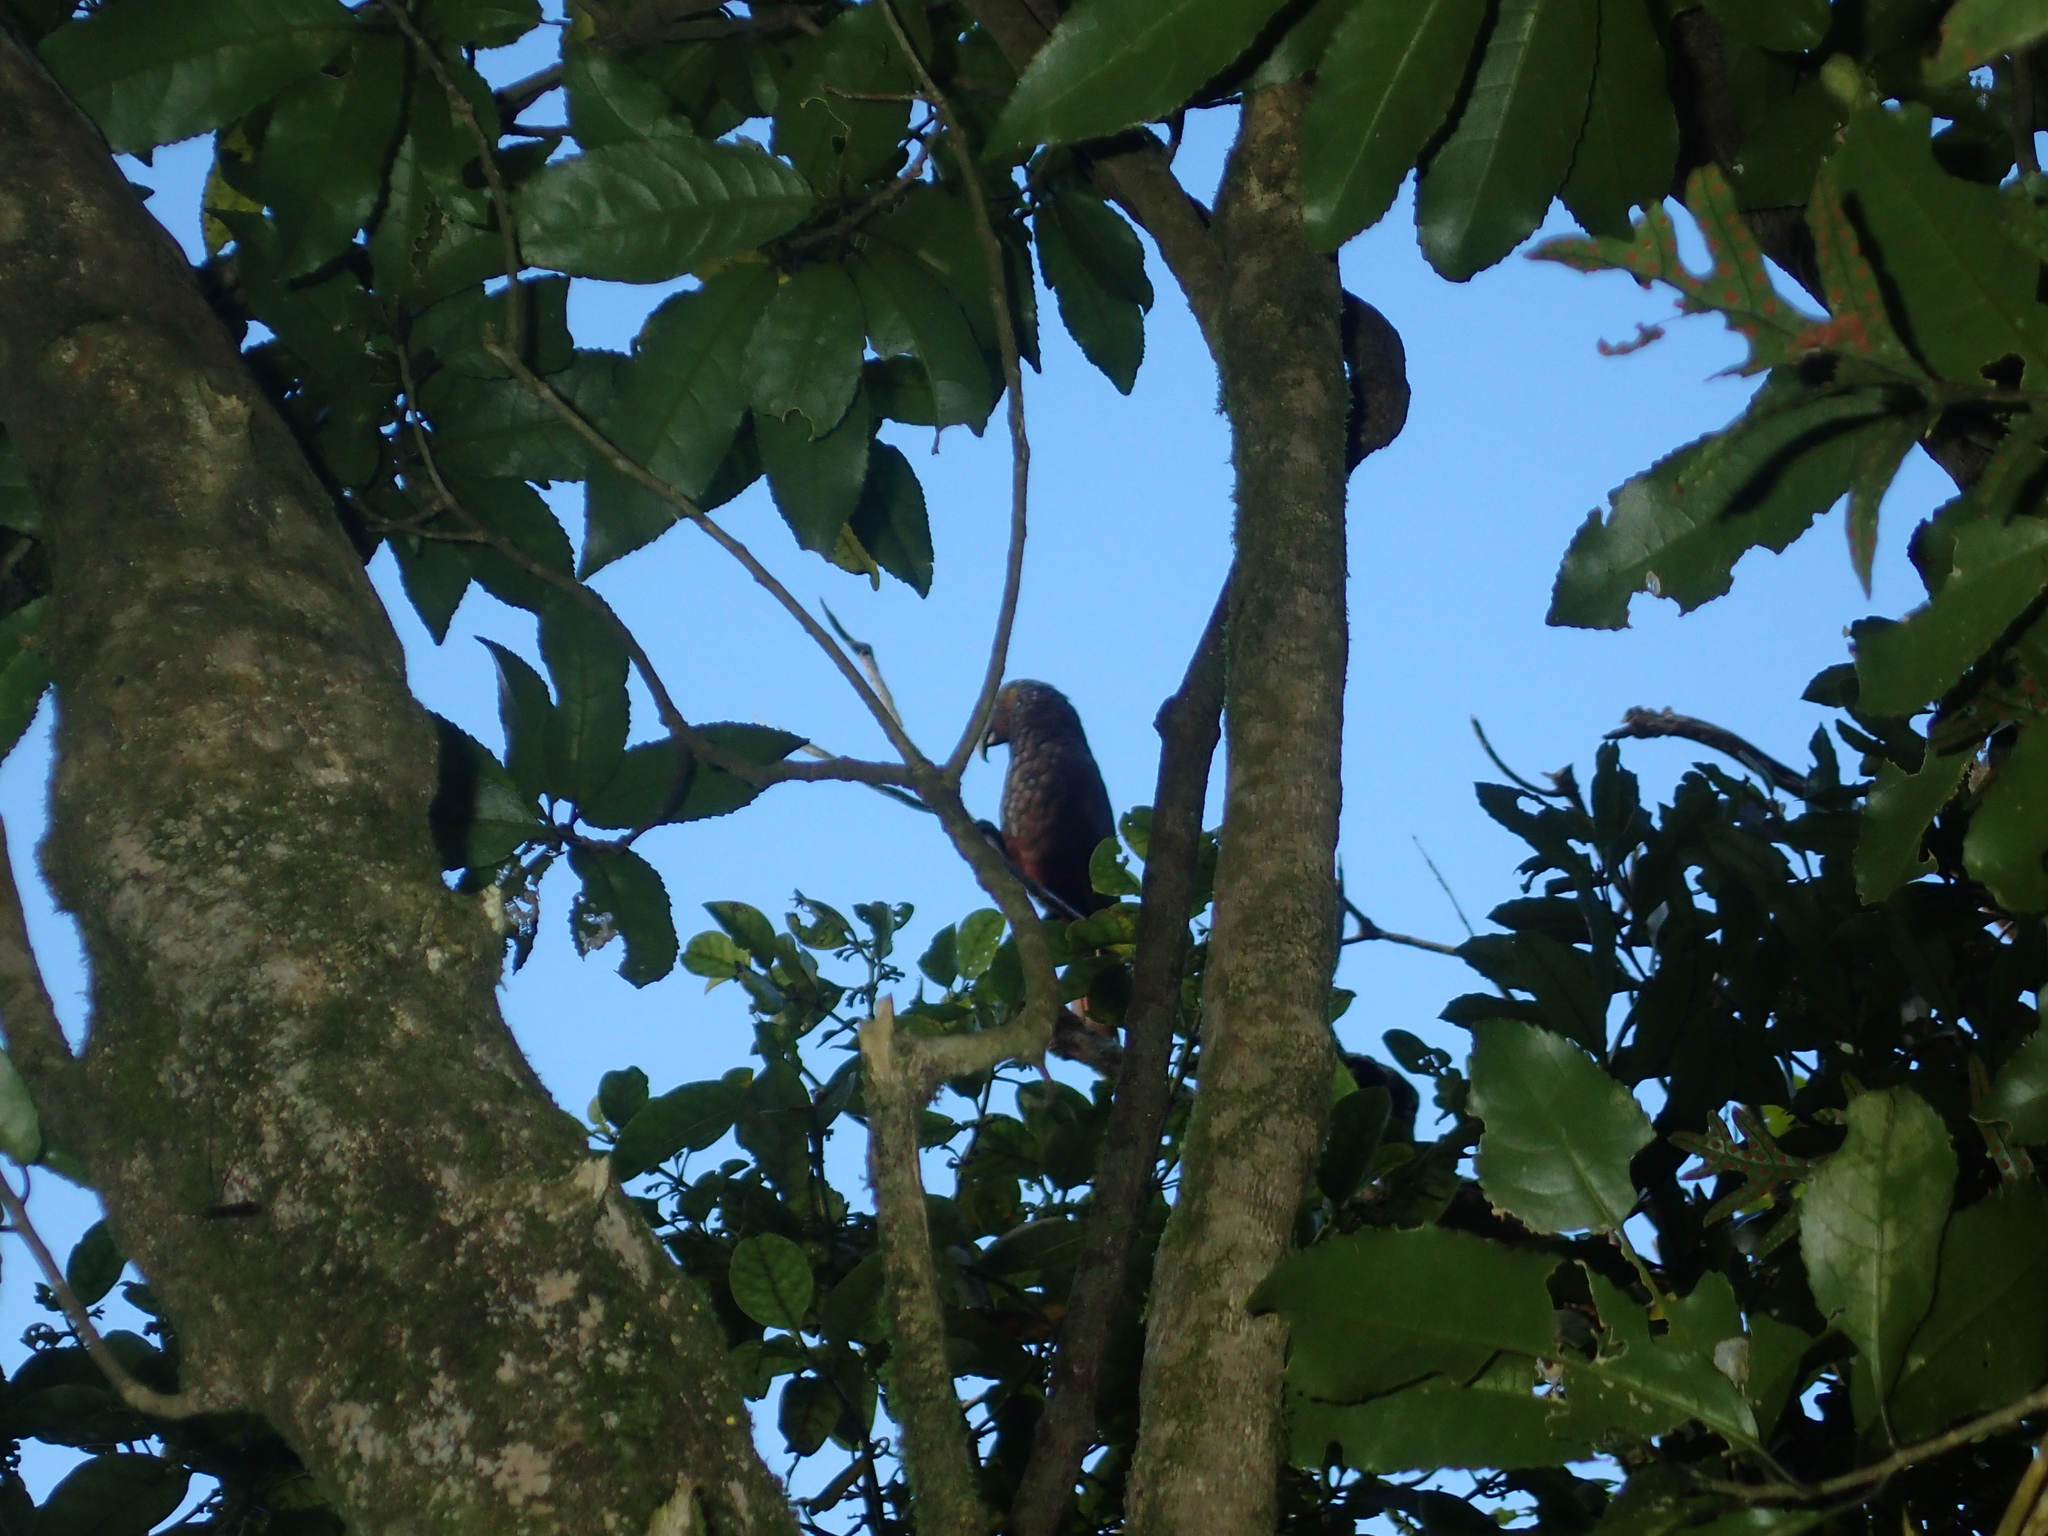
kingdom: Animalia
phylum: Chordata
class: Aves
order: Psittaciformes
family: Psittacidae
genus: Nestor
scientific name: Nestor meridionalis
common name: New zealand kaka
